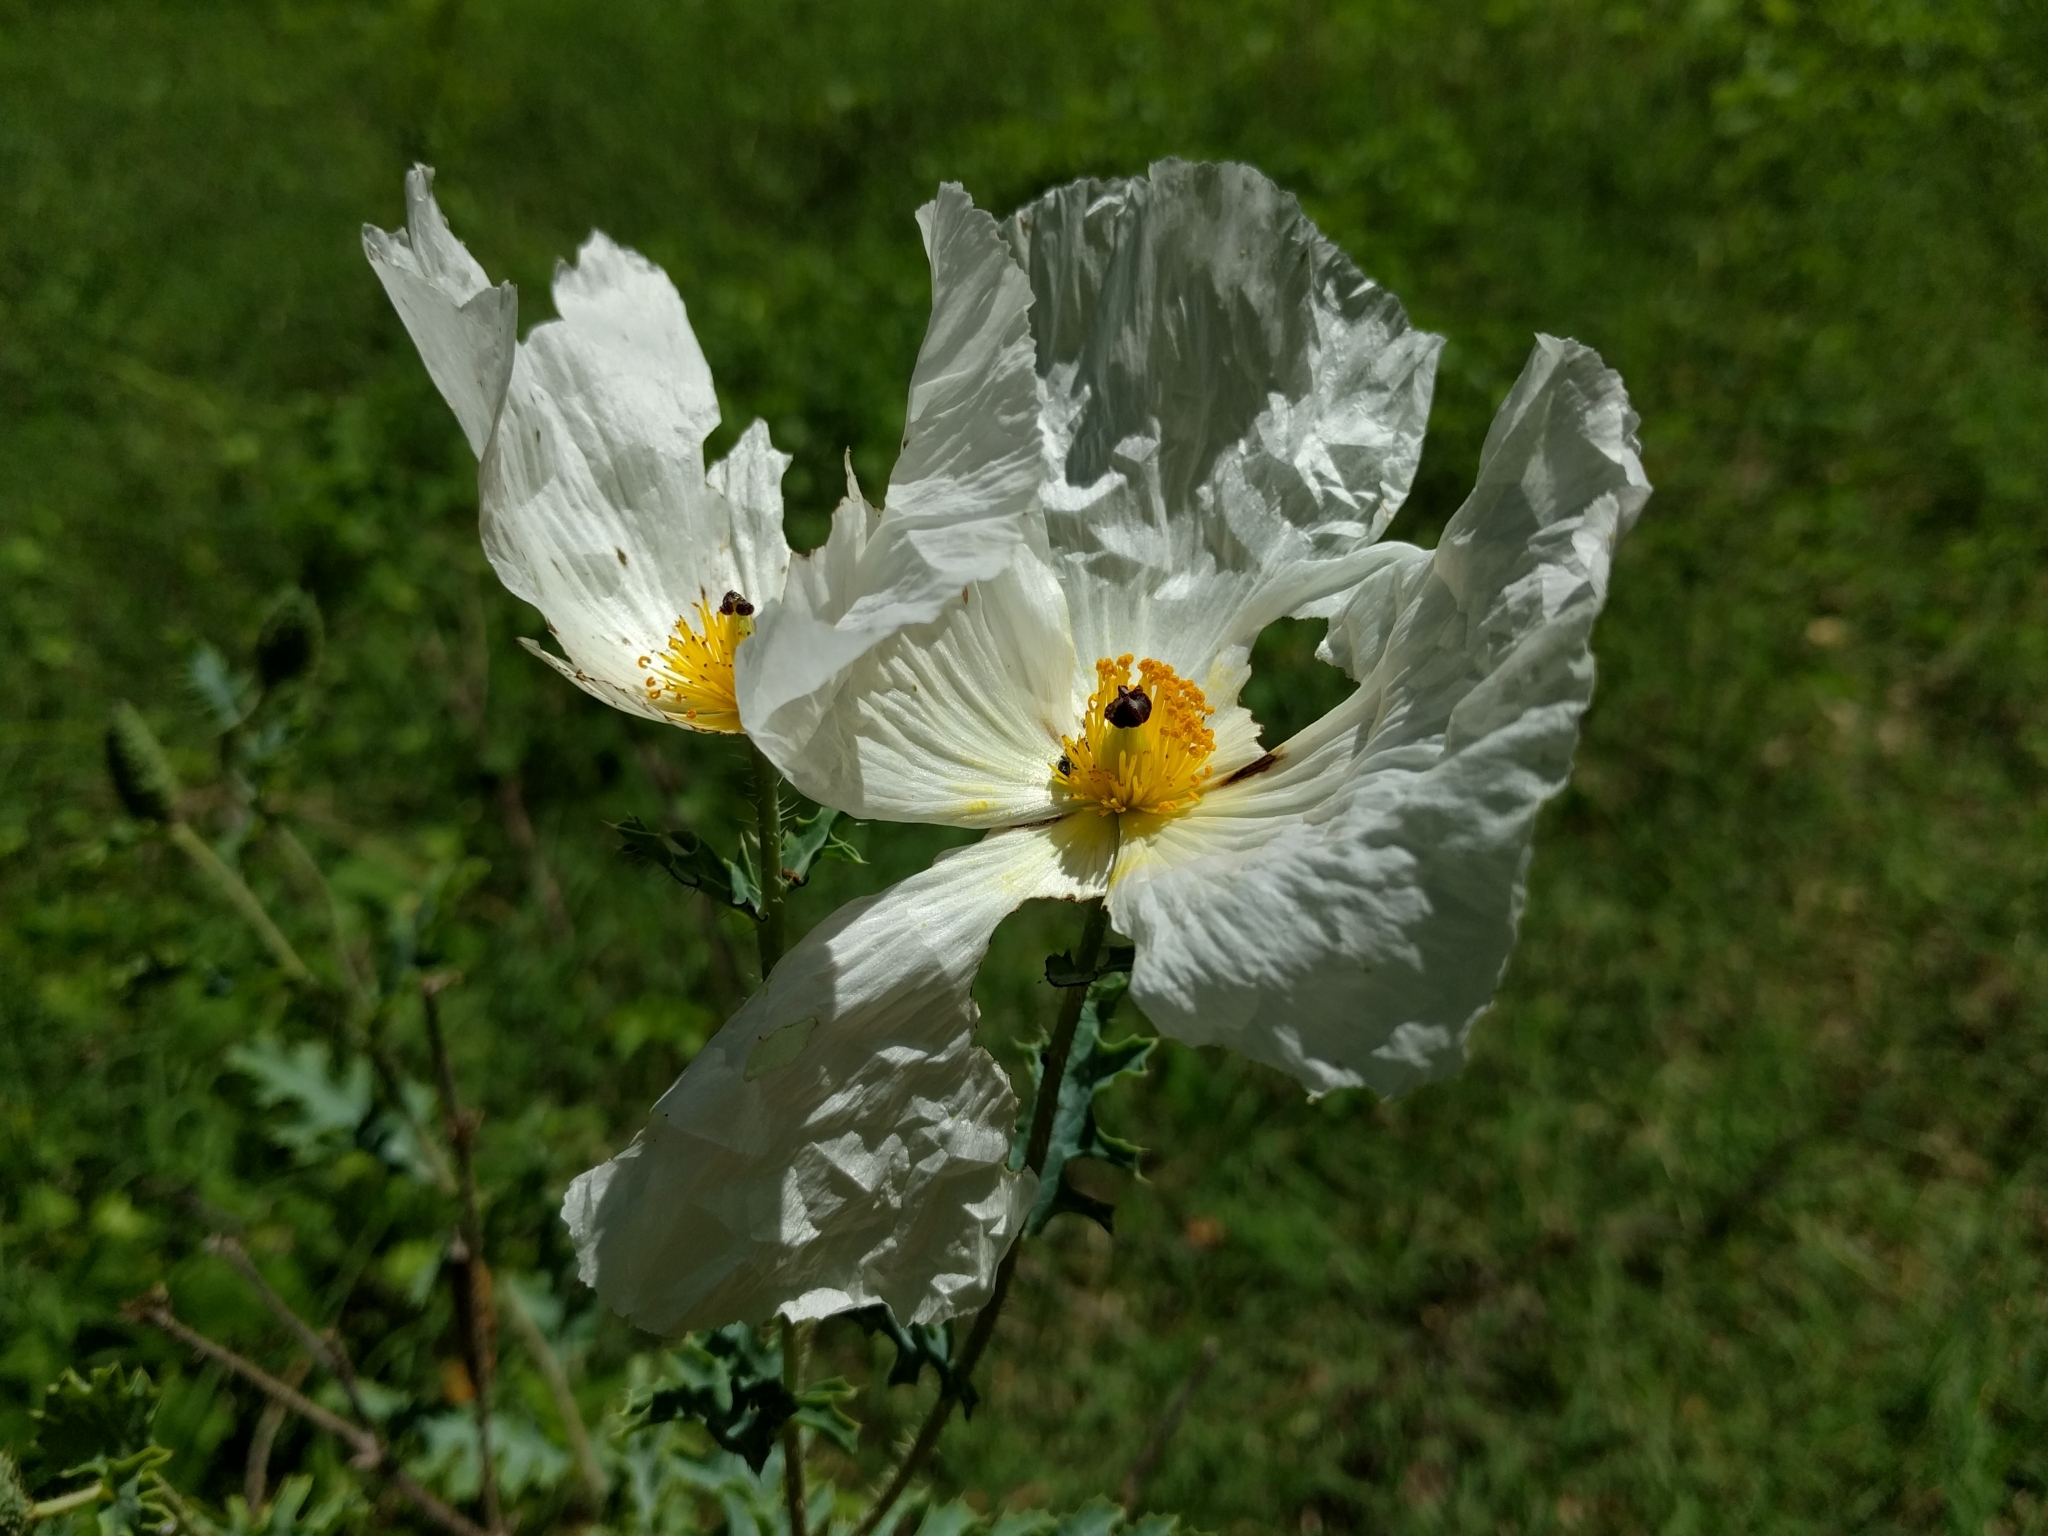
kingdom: Plantae
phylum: Tracheophyta
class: Magnoliopsida
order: Ranunculales
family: Papaveraceae
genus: Argemone
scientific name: Argemone pleiacantha
